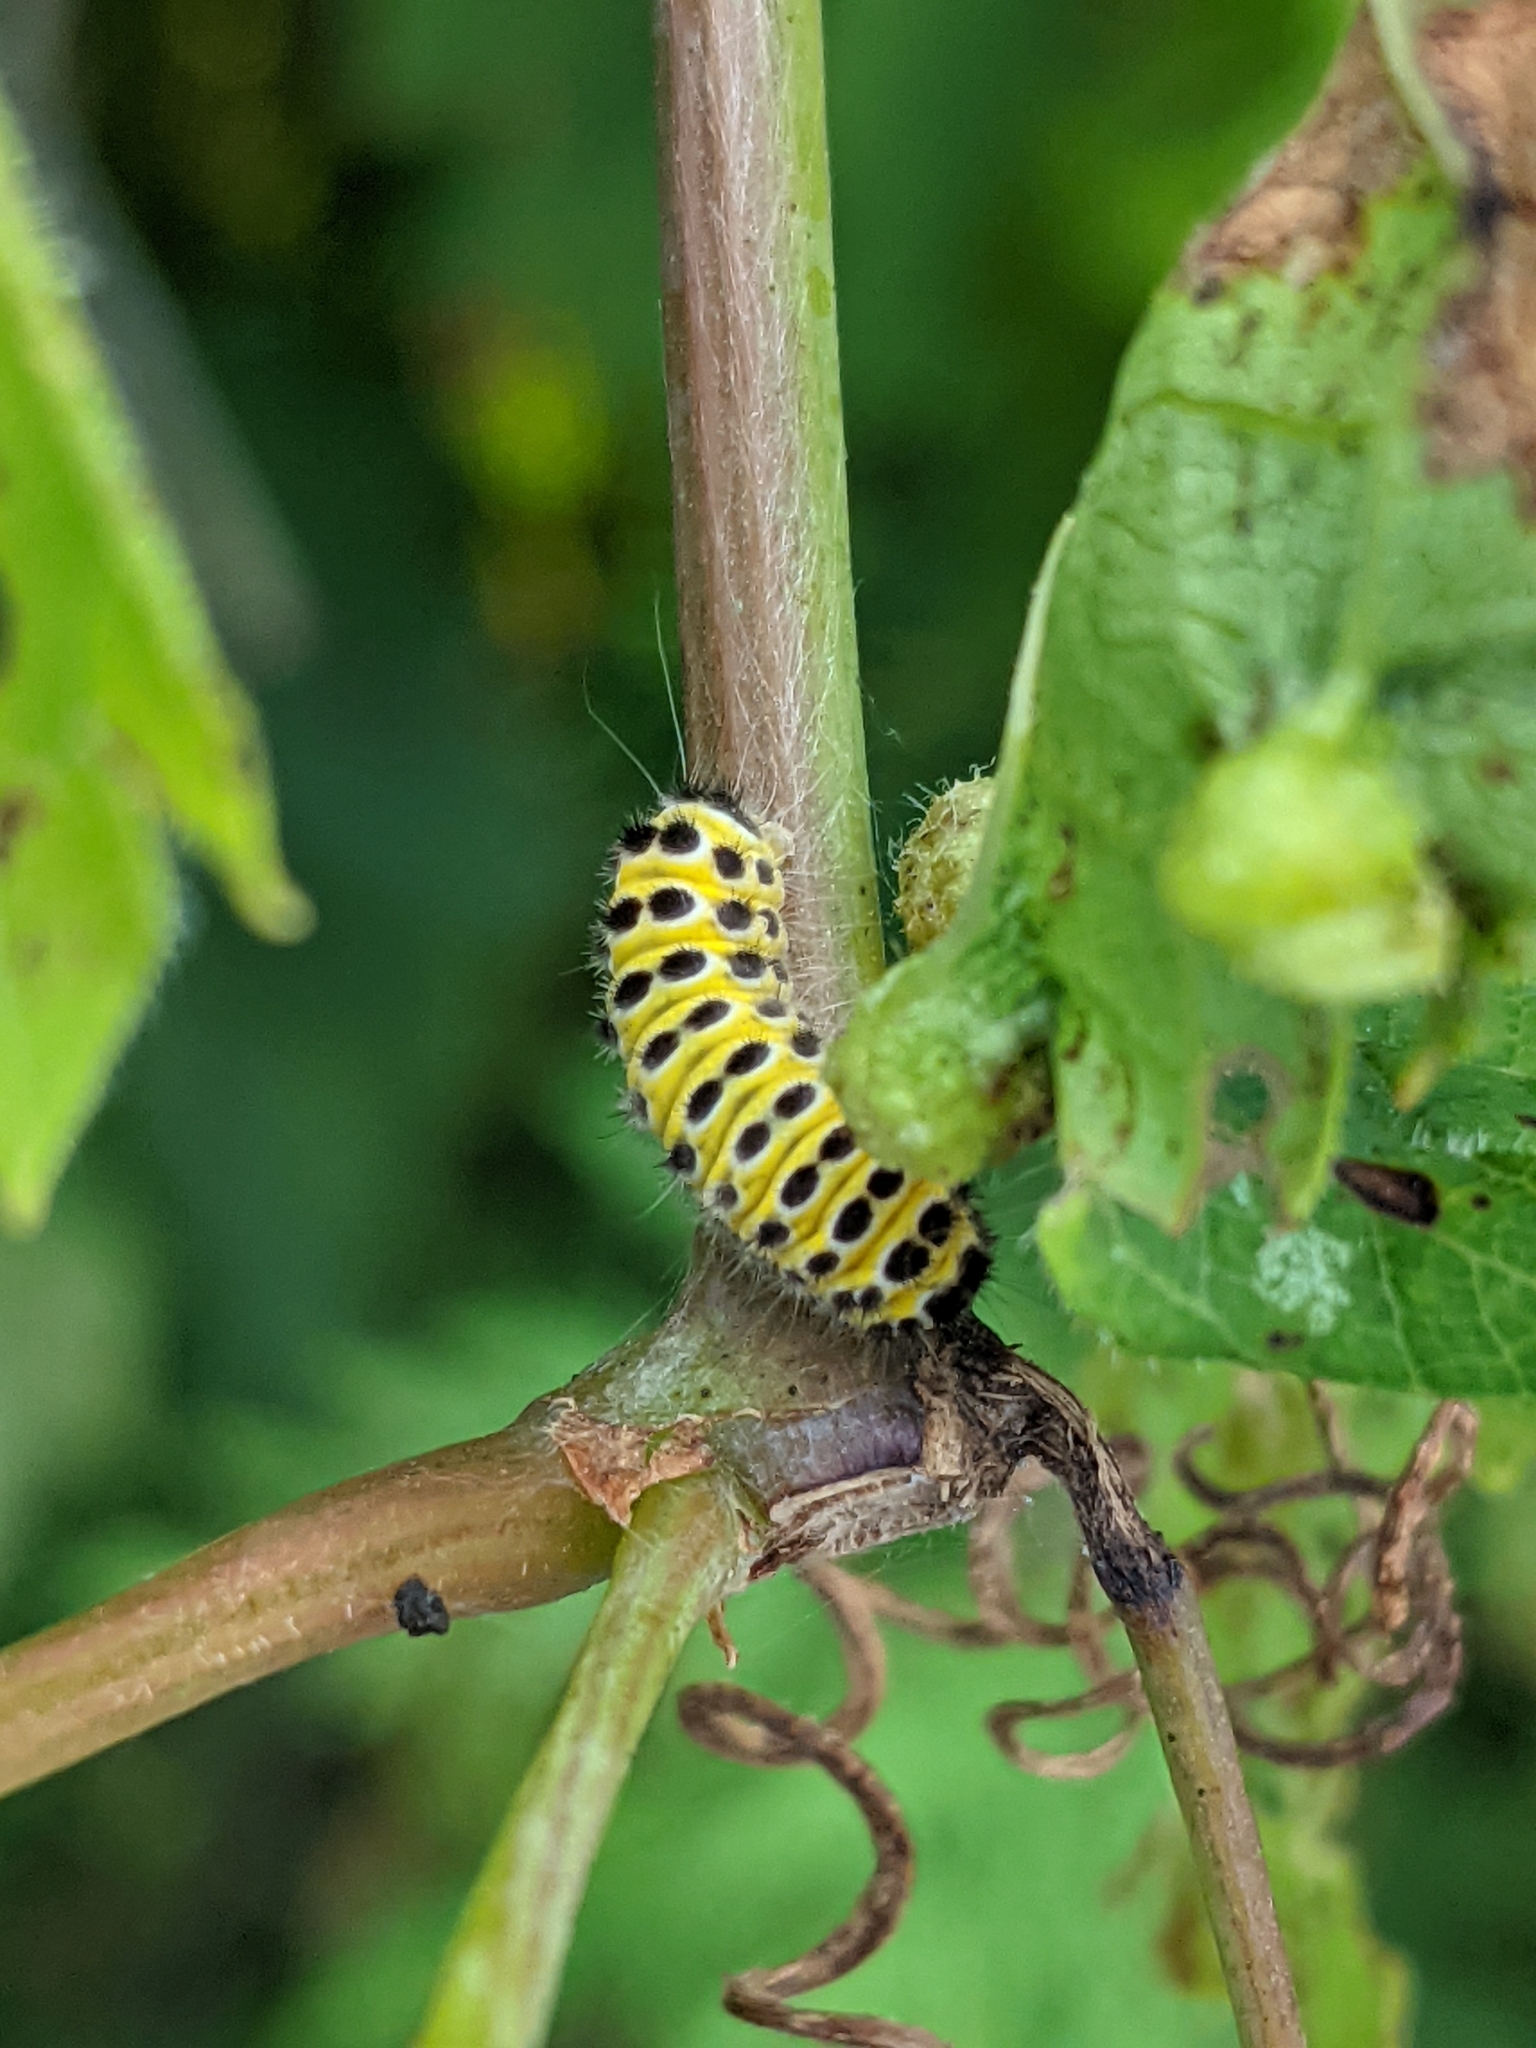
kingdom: Animalia
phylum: Arthropoda
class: Insecta
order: Lepidoptera
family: Zygaenidae
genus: Harrisina
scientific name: Harrisina americana
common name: Grapeleaf skeletonizer moth
